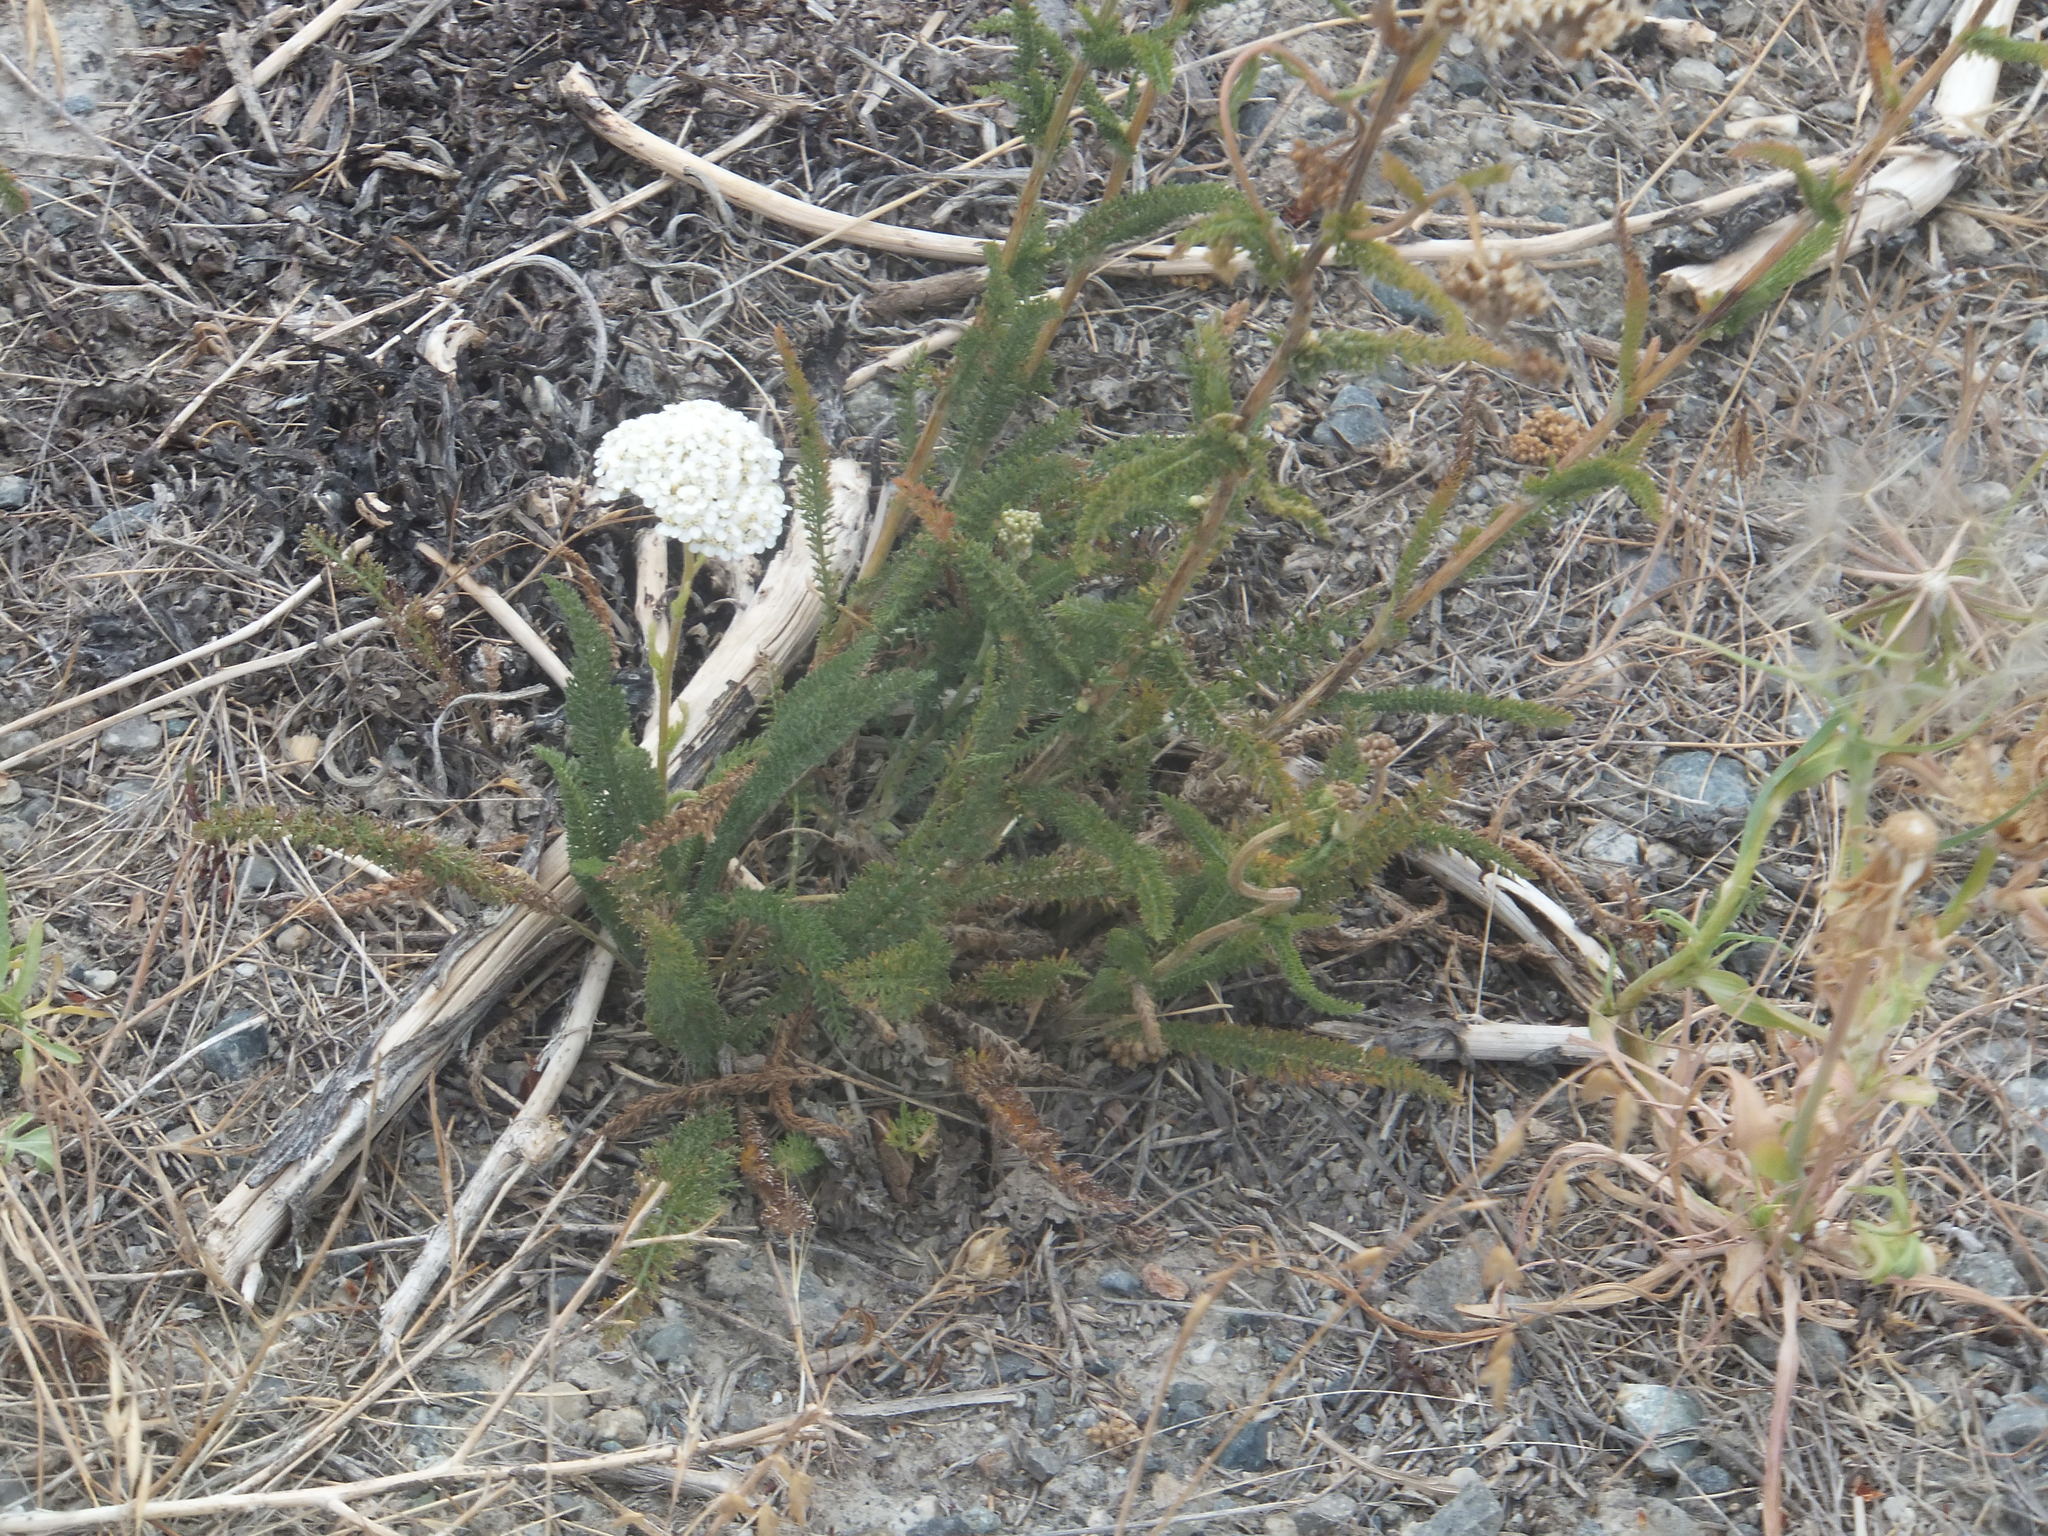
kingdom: Plantae
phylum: Tracheophyta
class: Magnoliopsida
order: Asterales
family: Asteraceae
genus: Achillea
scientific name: Achillea millefolium
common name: Yarrow
